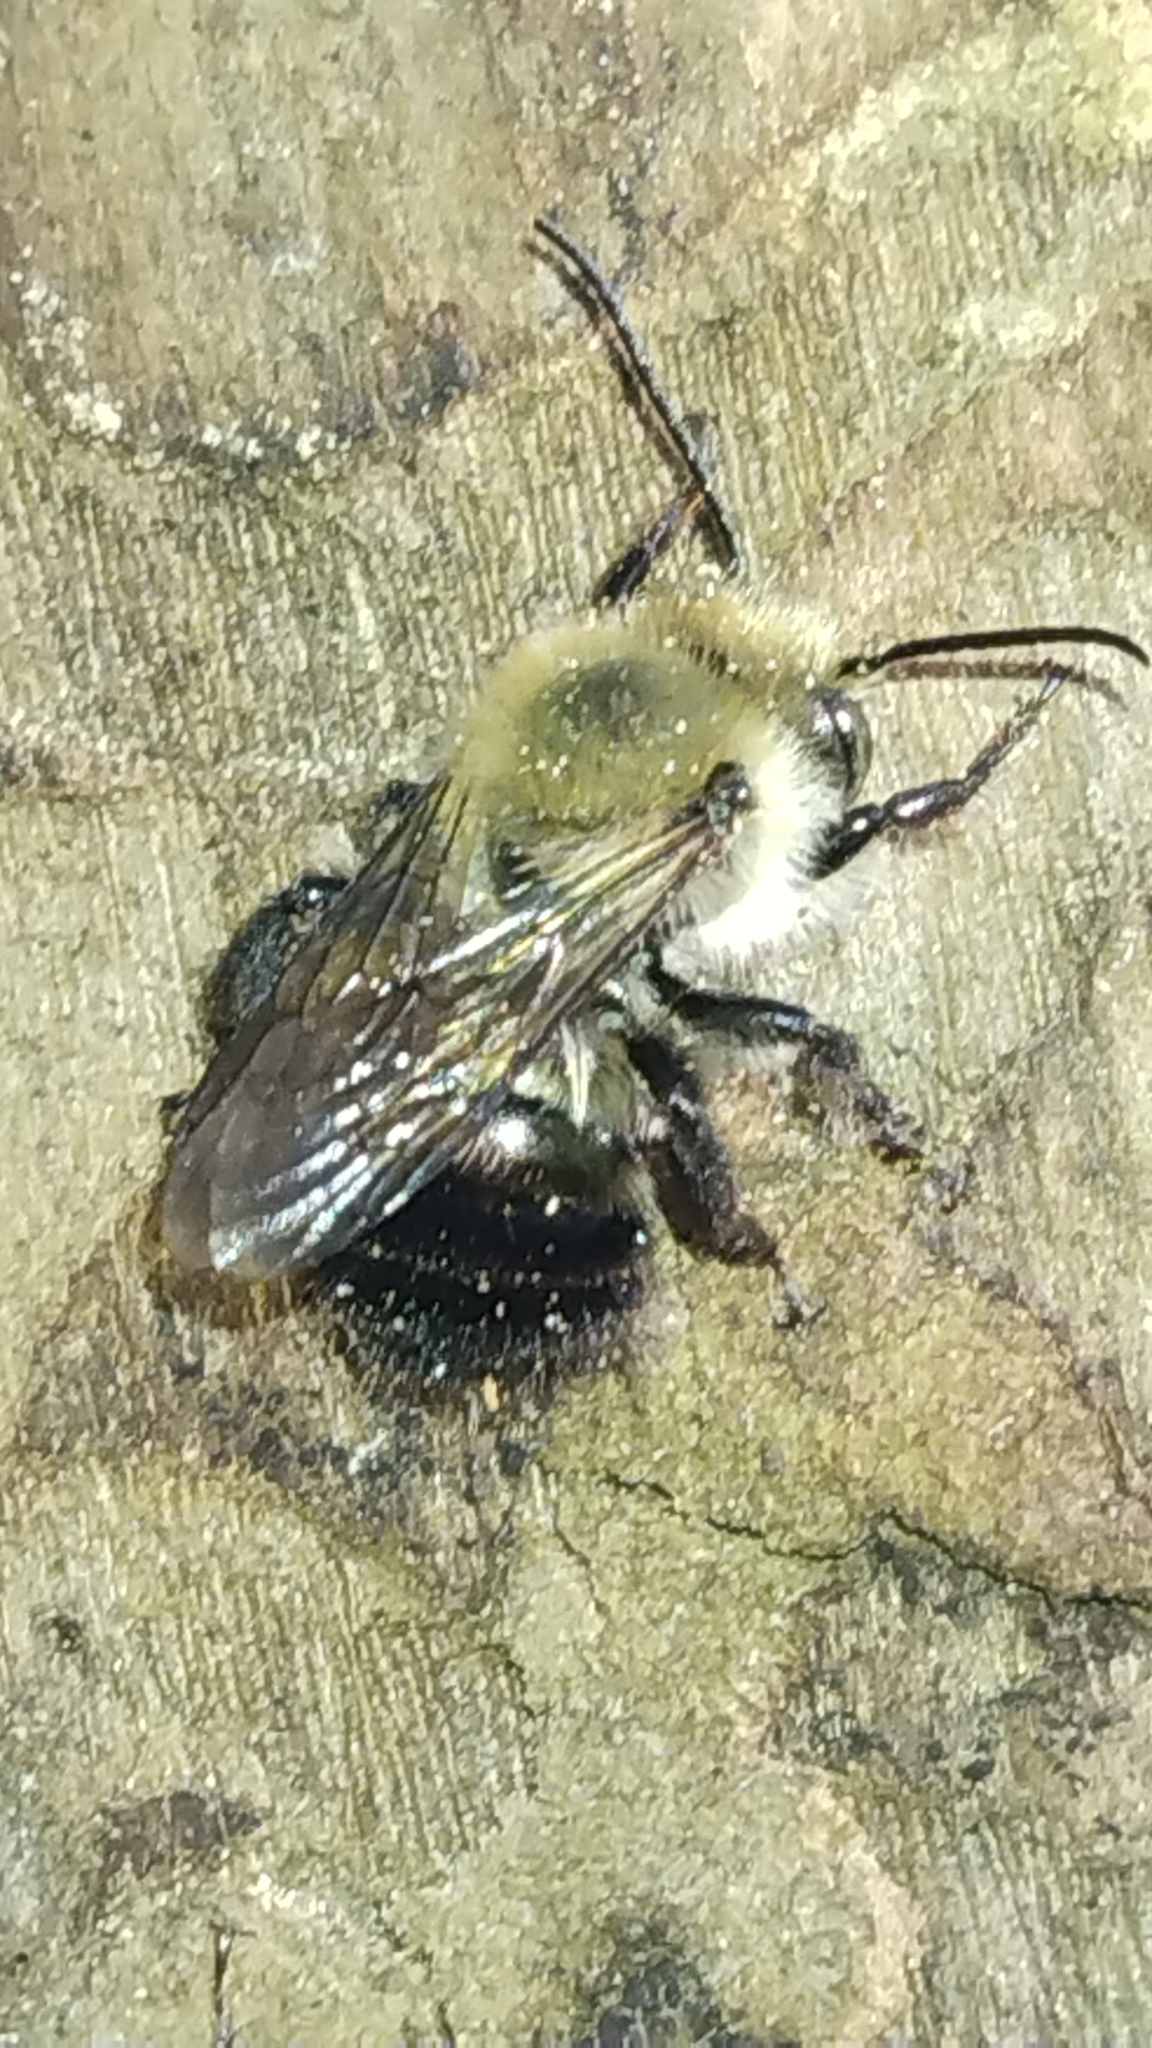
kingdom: Animalia
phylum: Arthropoda
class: Insecta
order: Hymenoptera
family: Megachilidae
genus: Osmia
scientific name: Osmia bucephala
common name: Bufflehead mason bee
